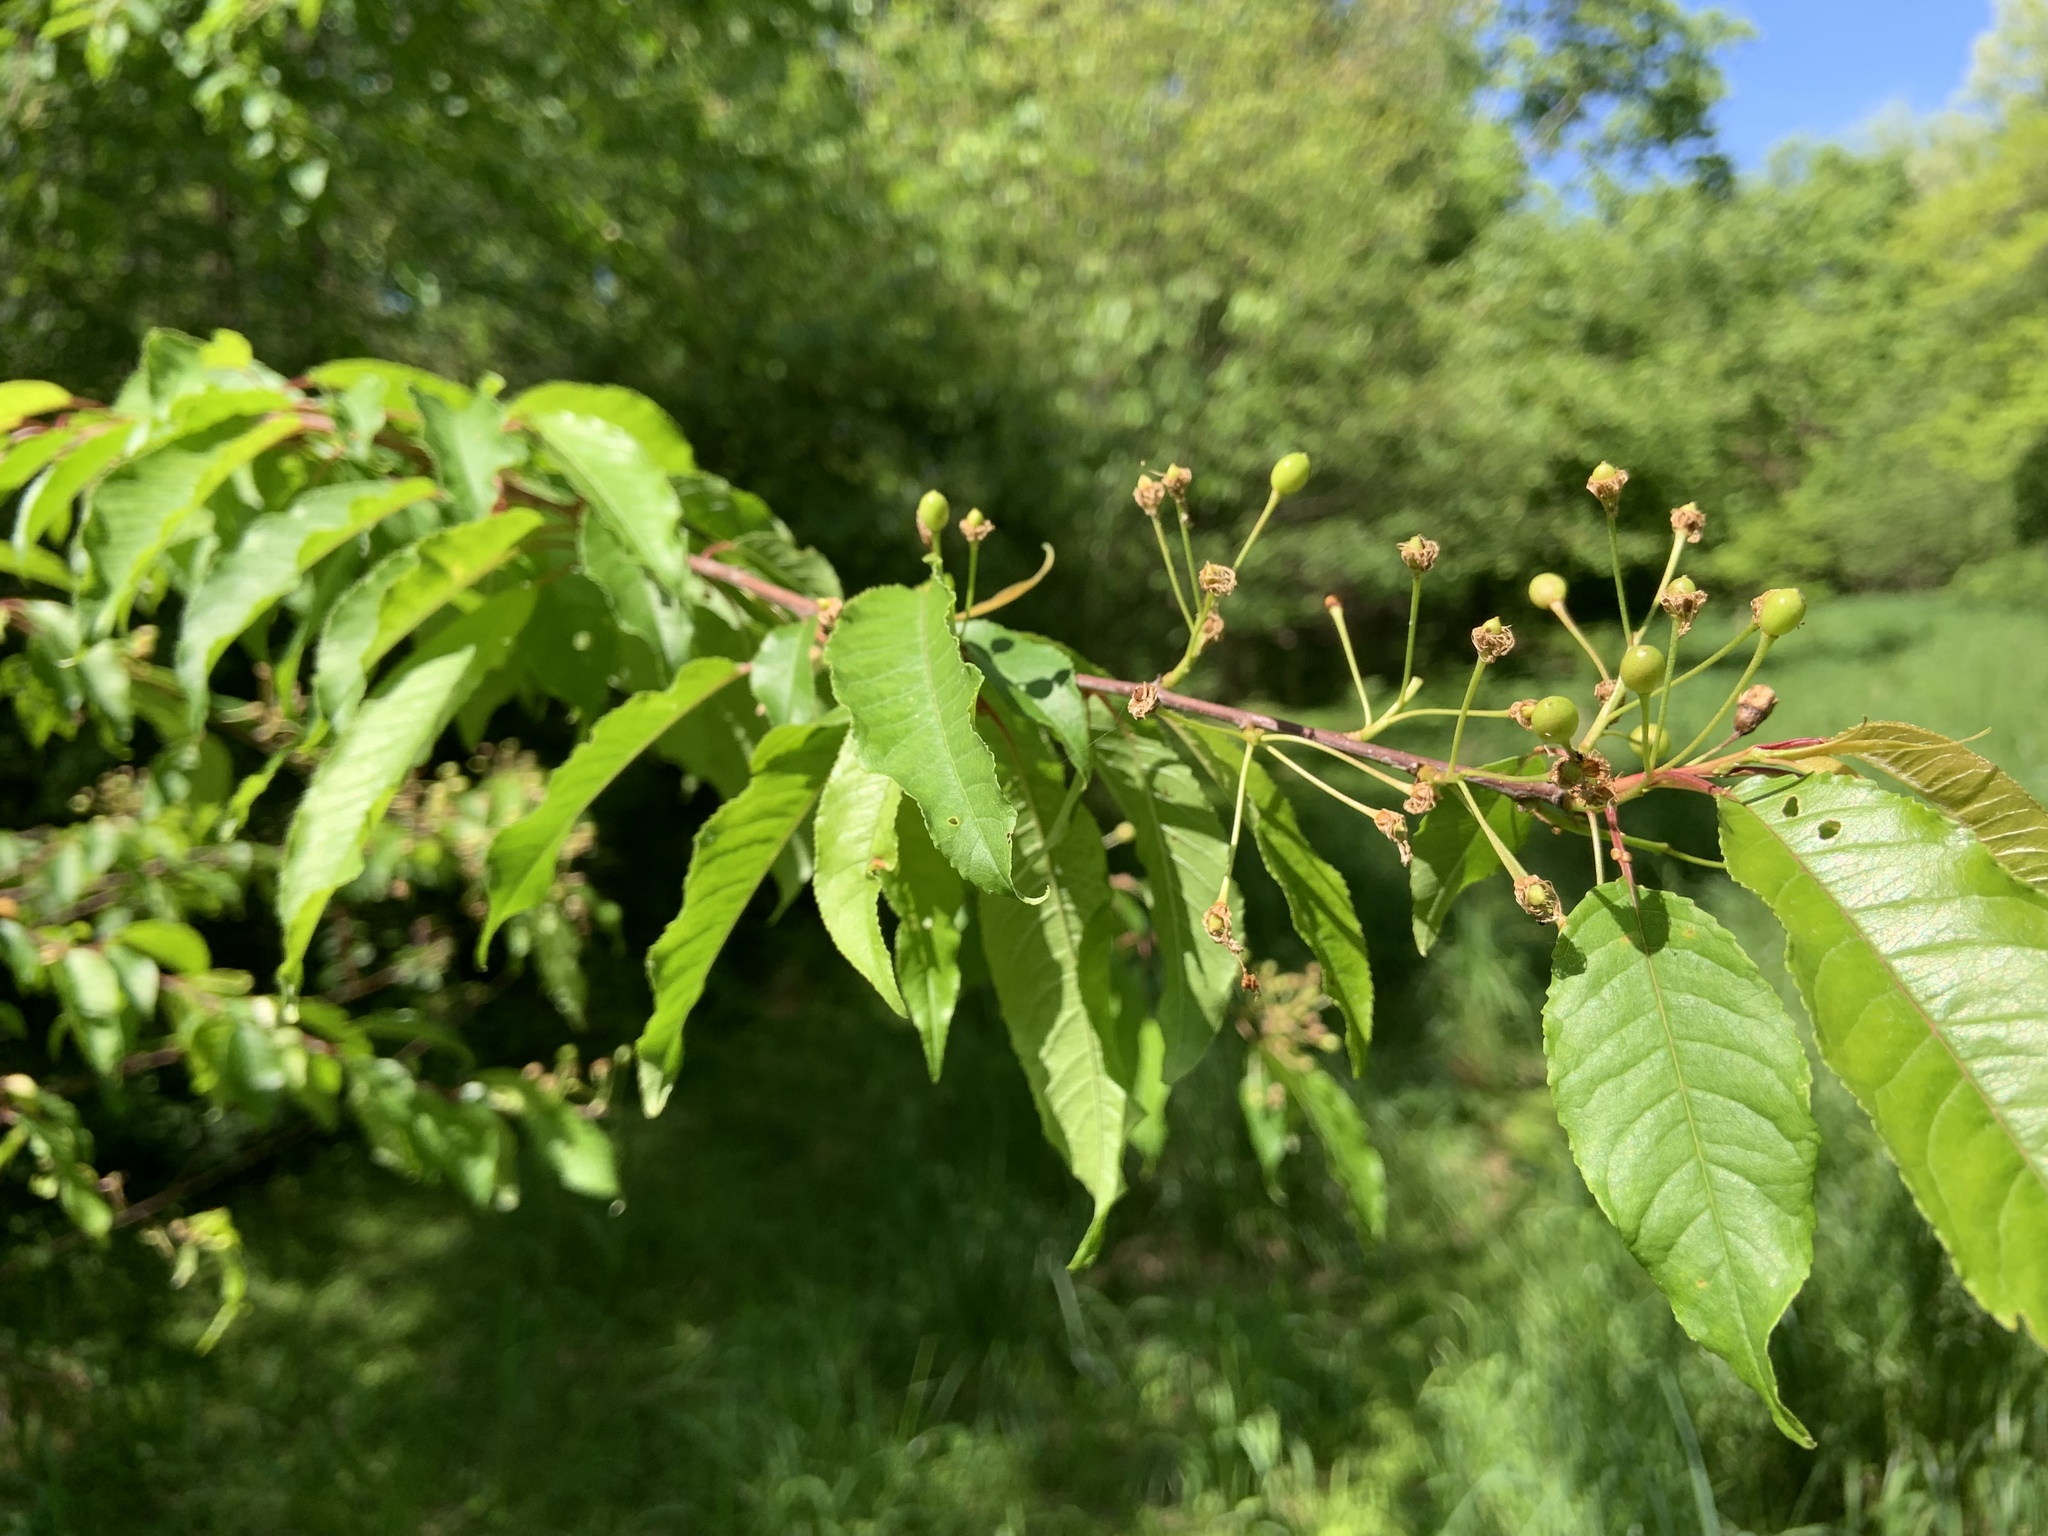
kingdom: Plantae
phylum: Tracheophyta
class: Magnoliopsida
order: Rosales
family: Rosaceae
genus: Prunus
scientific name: Prunus pensylvanica
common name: Pin cherry
